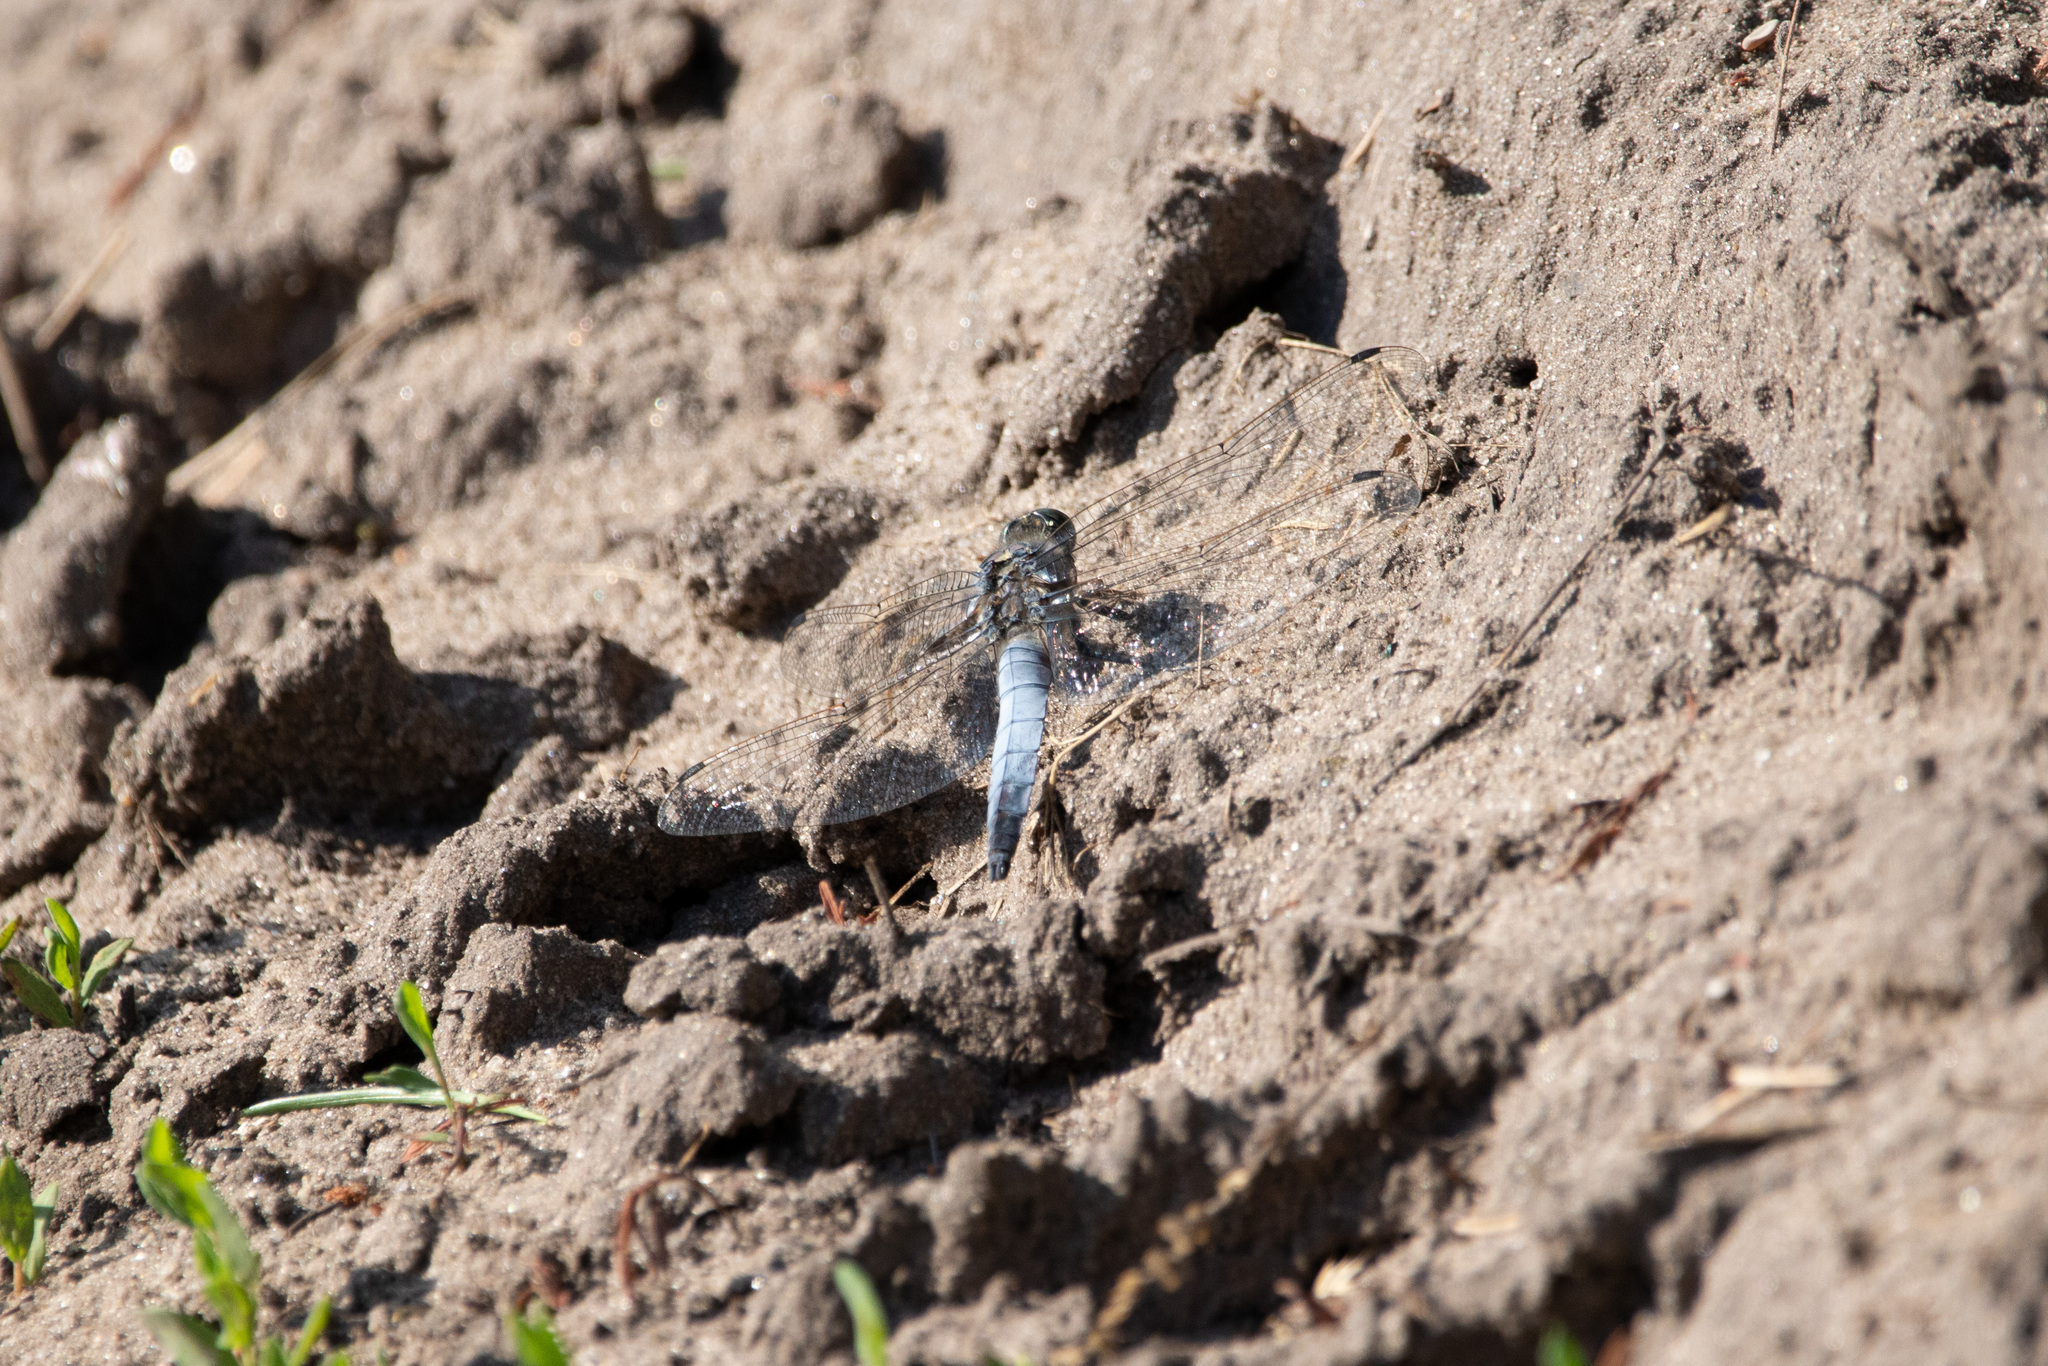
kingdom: Animalia
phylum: Arthropoda
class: Insecta
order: Odonata
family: Libellulidae
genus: Orthetrum
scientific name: Orthetrum cancellatum
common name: Black-tailed skimmer
